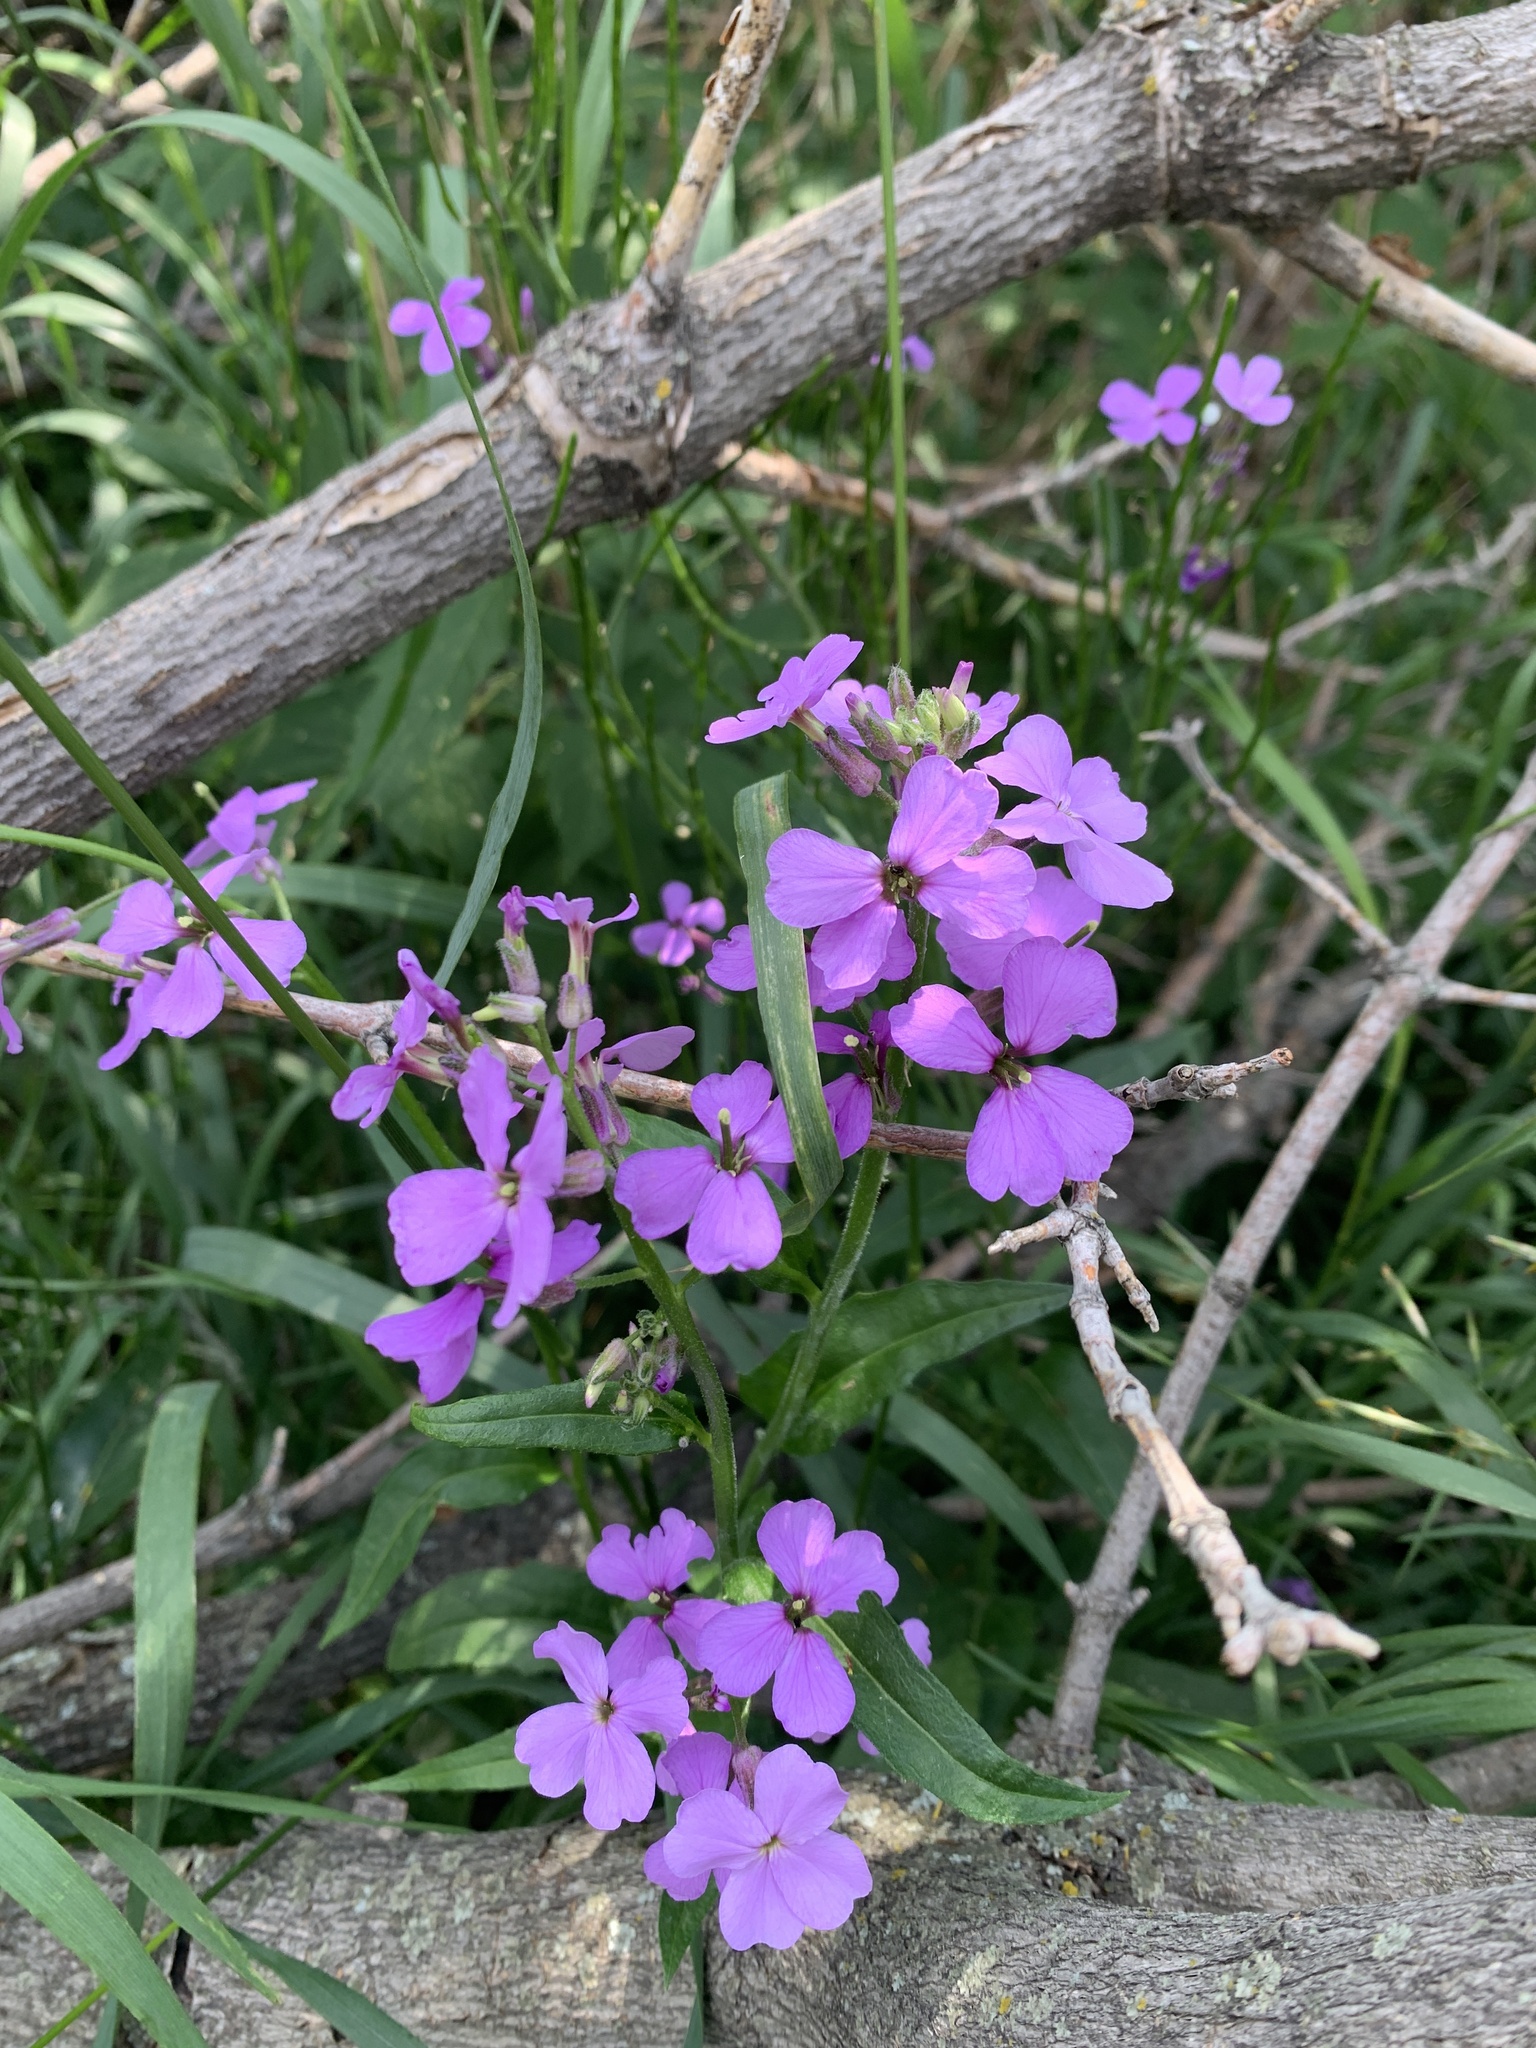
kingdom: Plantae
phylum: Tracheophyta
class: Magnoliopsida
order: Brassicales
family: Brassicaceae
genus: Hesperis
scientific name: Hesperis matronalis
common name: Dame's-violet
